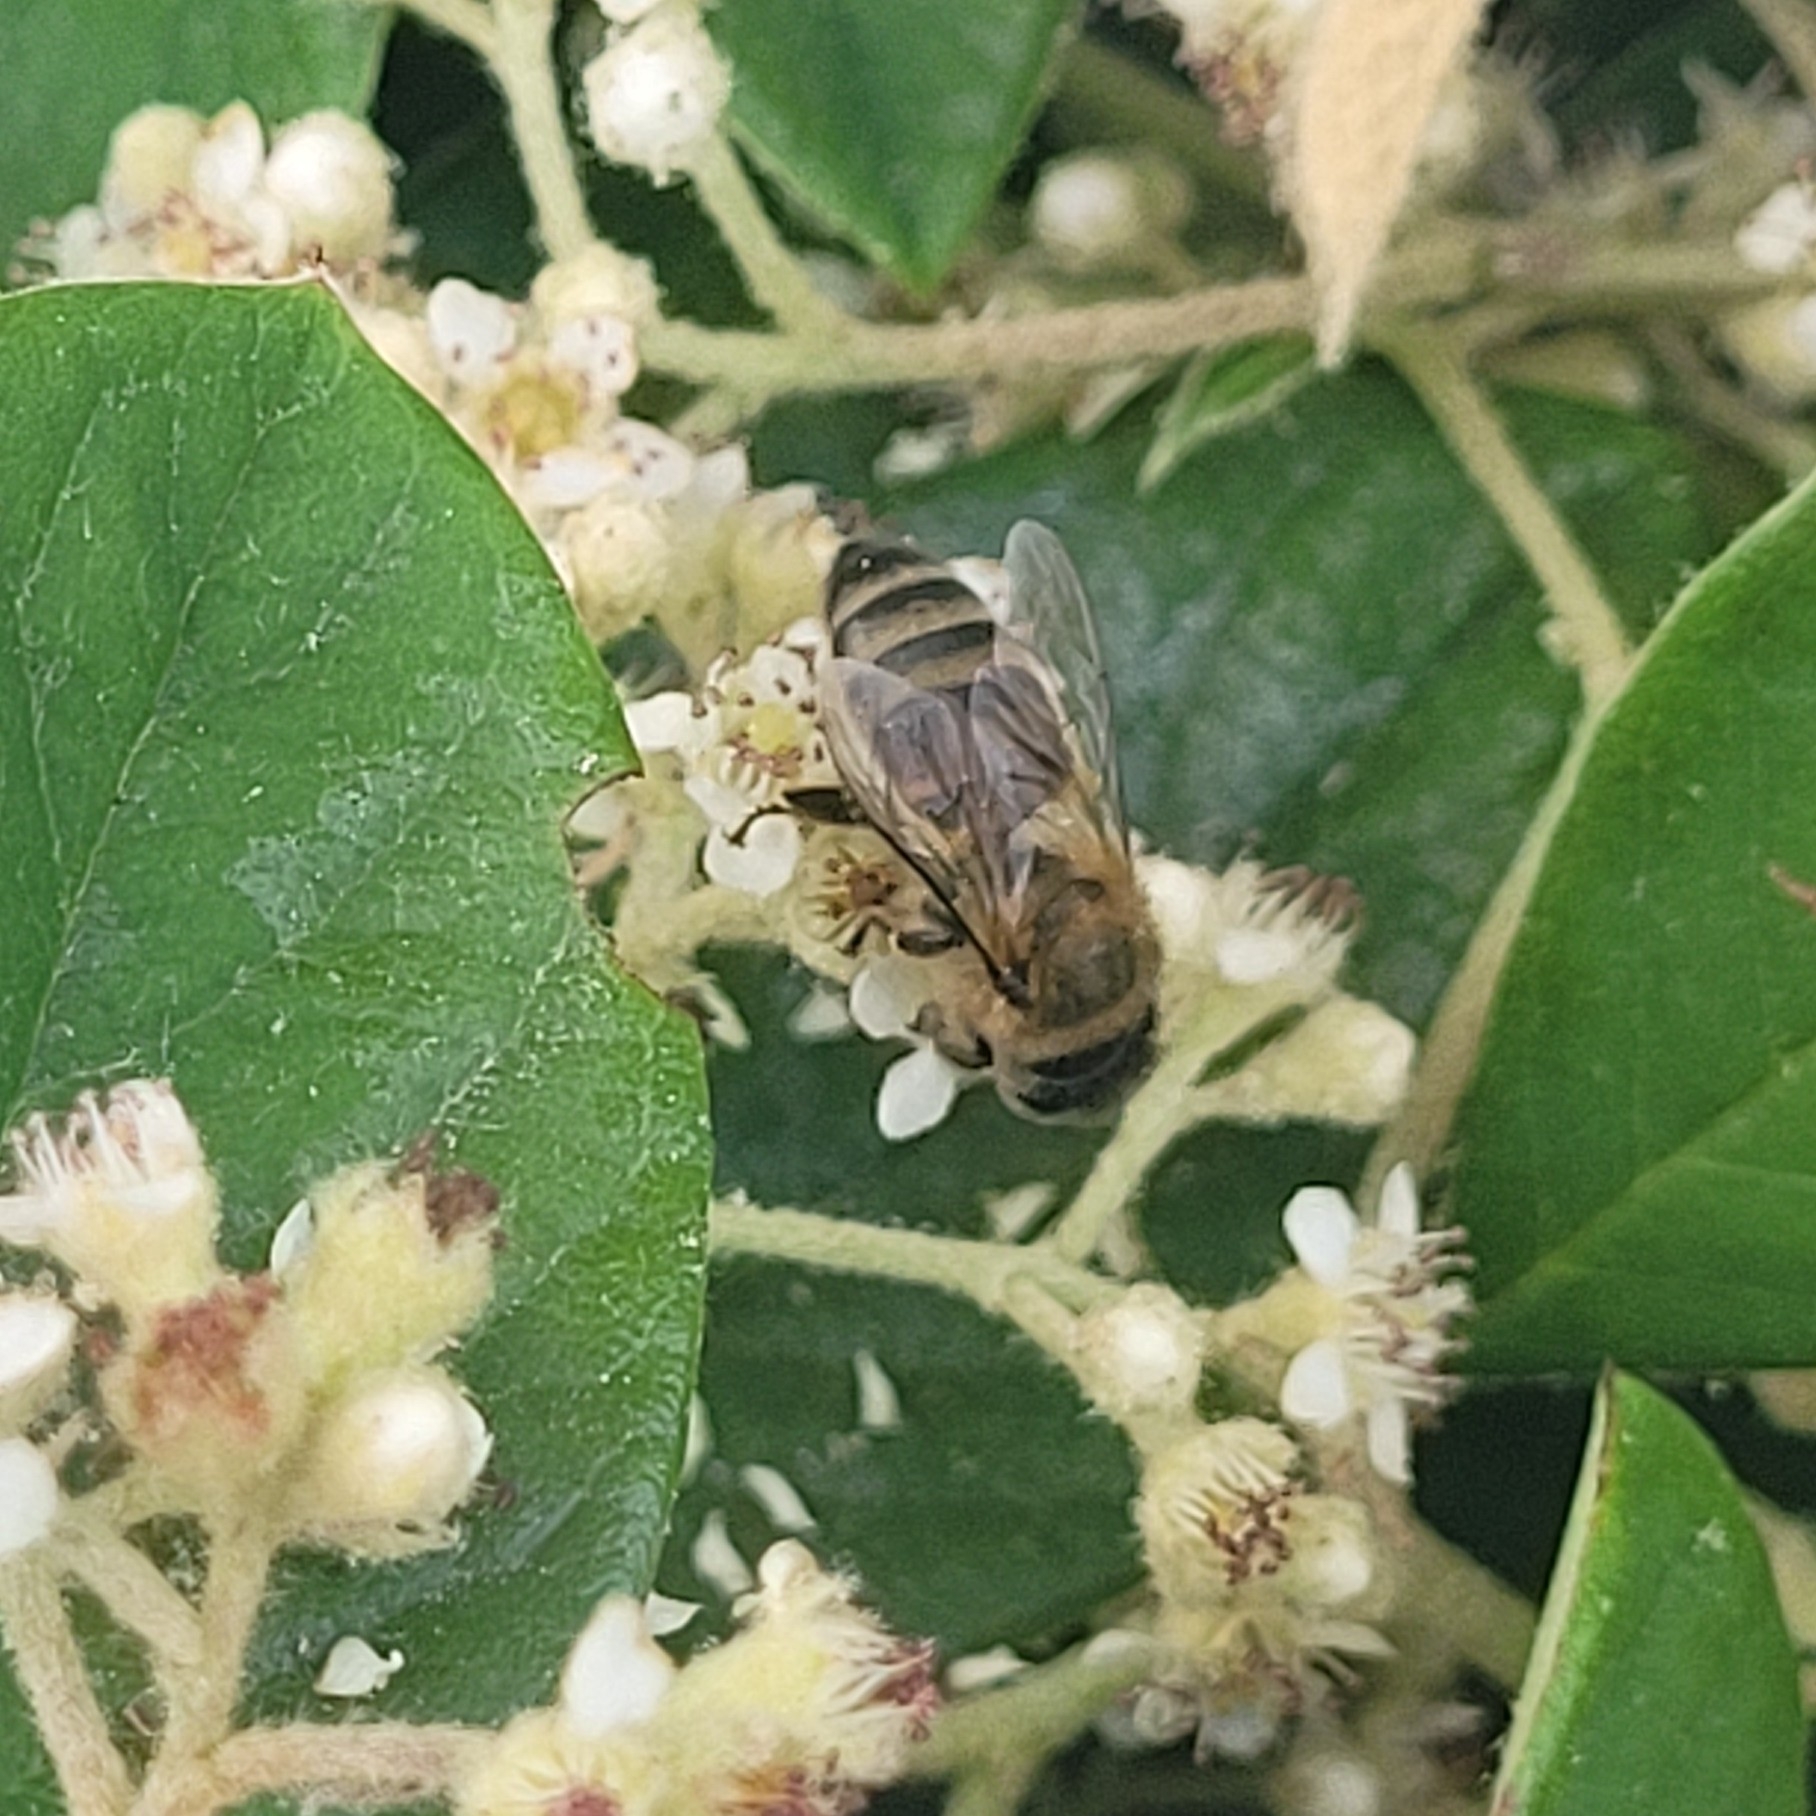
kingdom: Animalia
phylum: Arthropoda
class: Insecta
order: Hymenoptera
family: Apidae
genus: Apis
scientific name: Apis mellifera
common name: Honey bee
